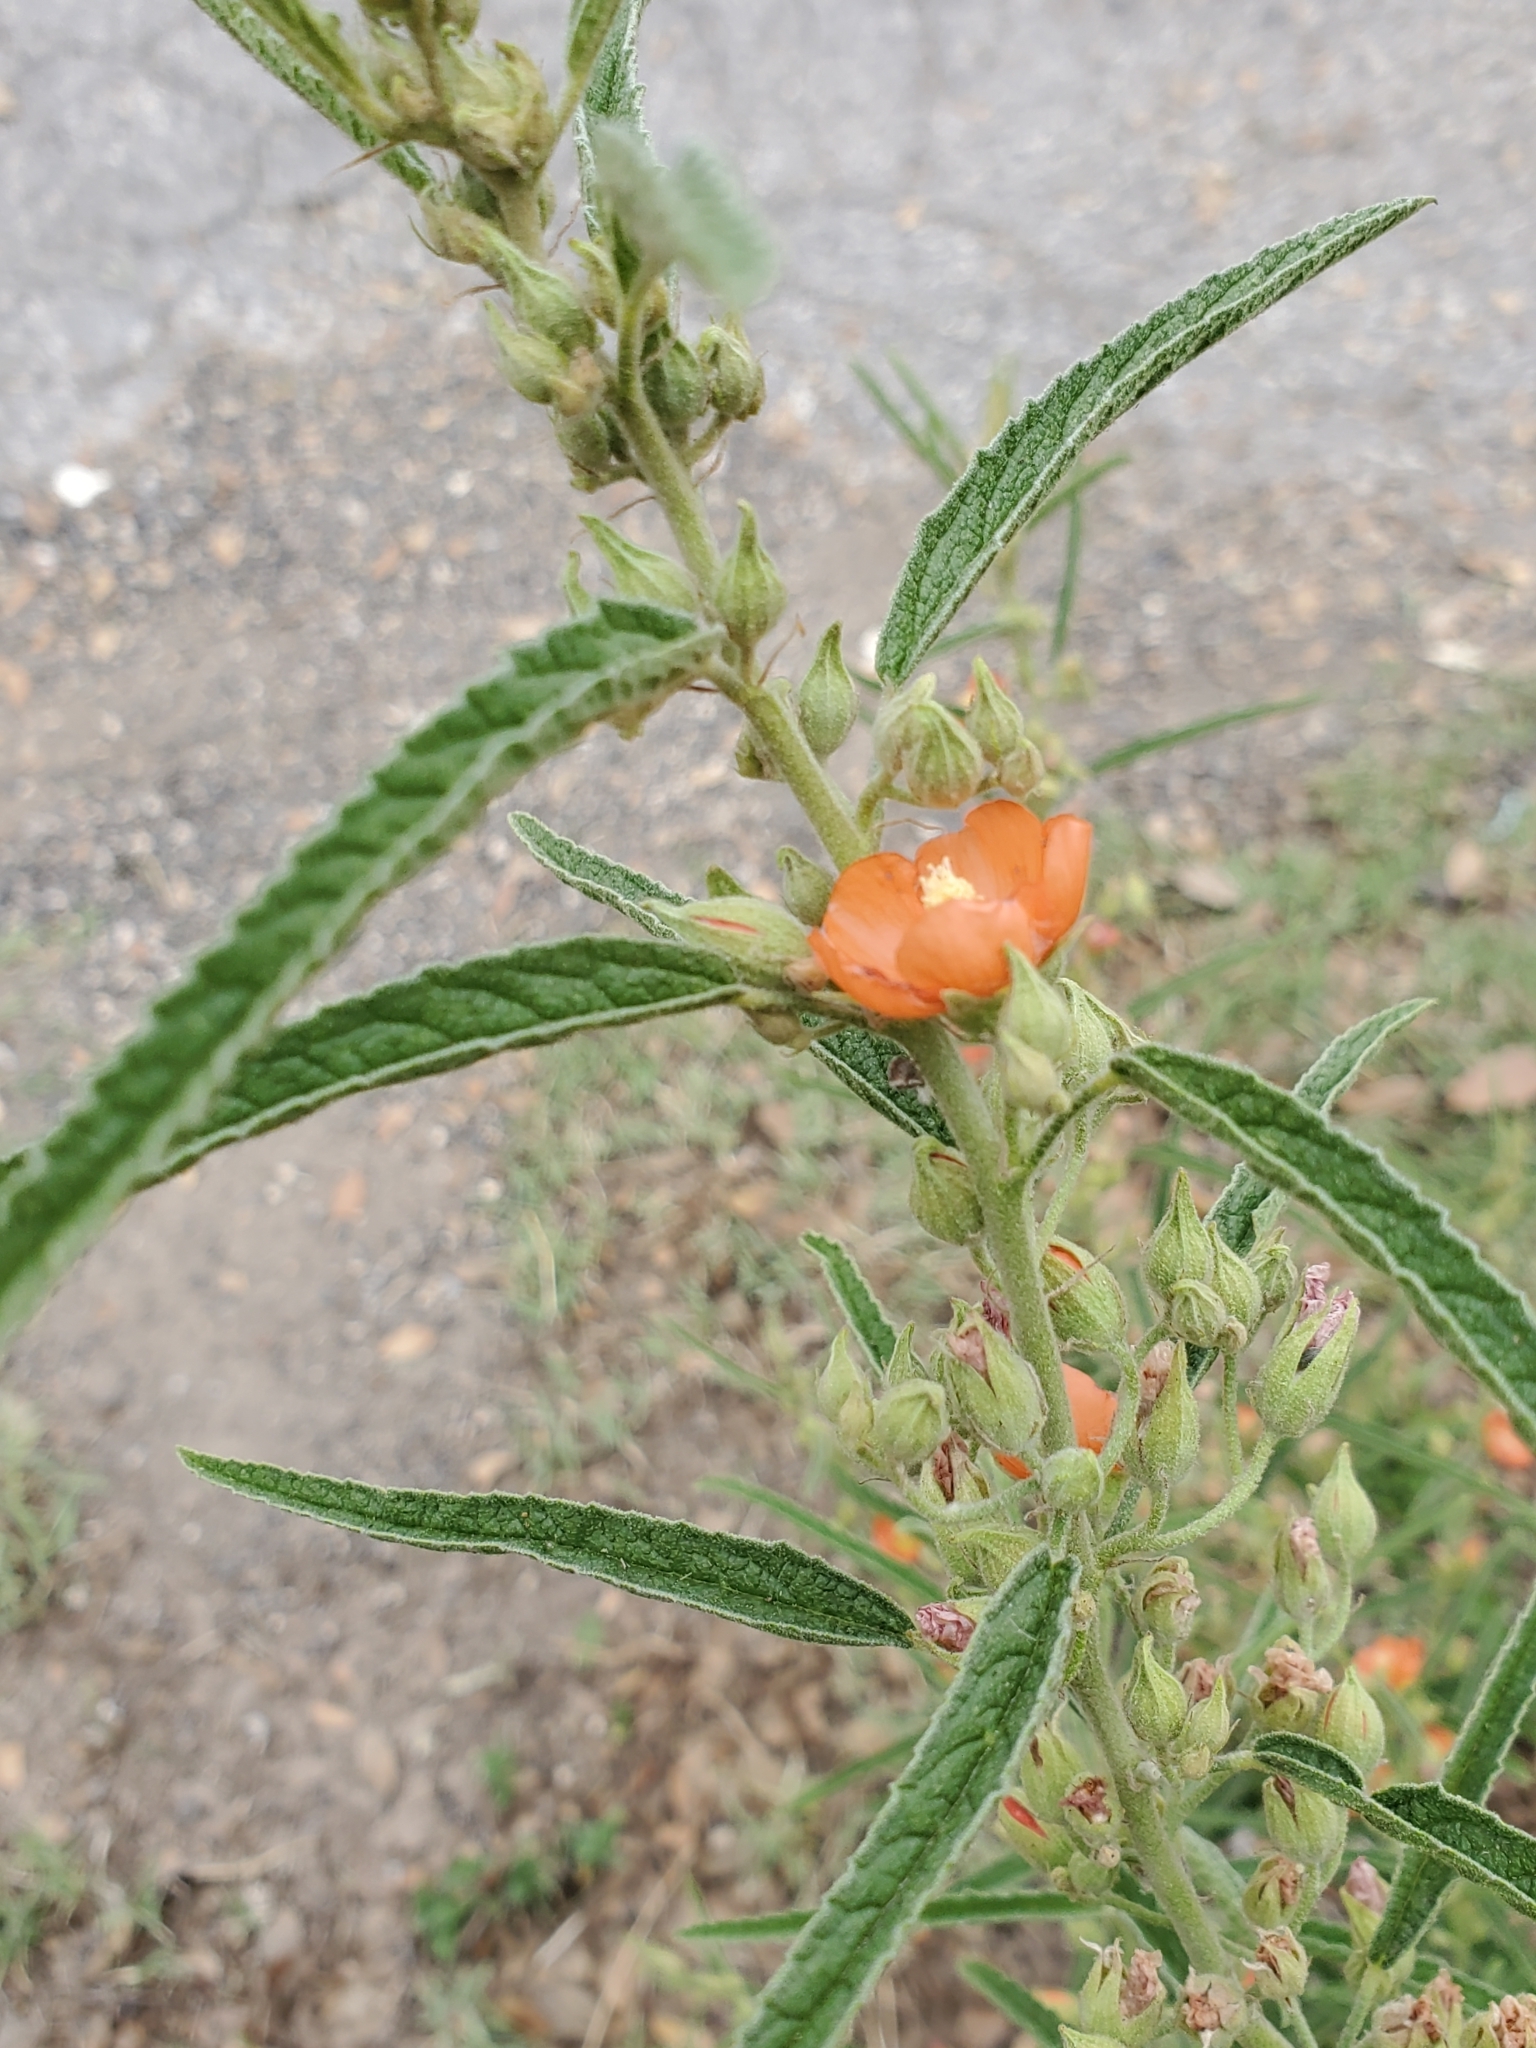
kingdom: Plantae
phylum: Tracheophyta
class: Magnoliopsida
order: Malvales
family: Malvaceae
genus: Sphaeralcea
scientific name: Sphaeralcea angustifolia
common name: Copper globe-mallow
